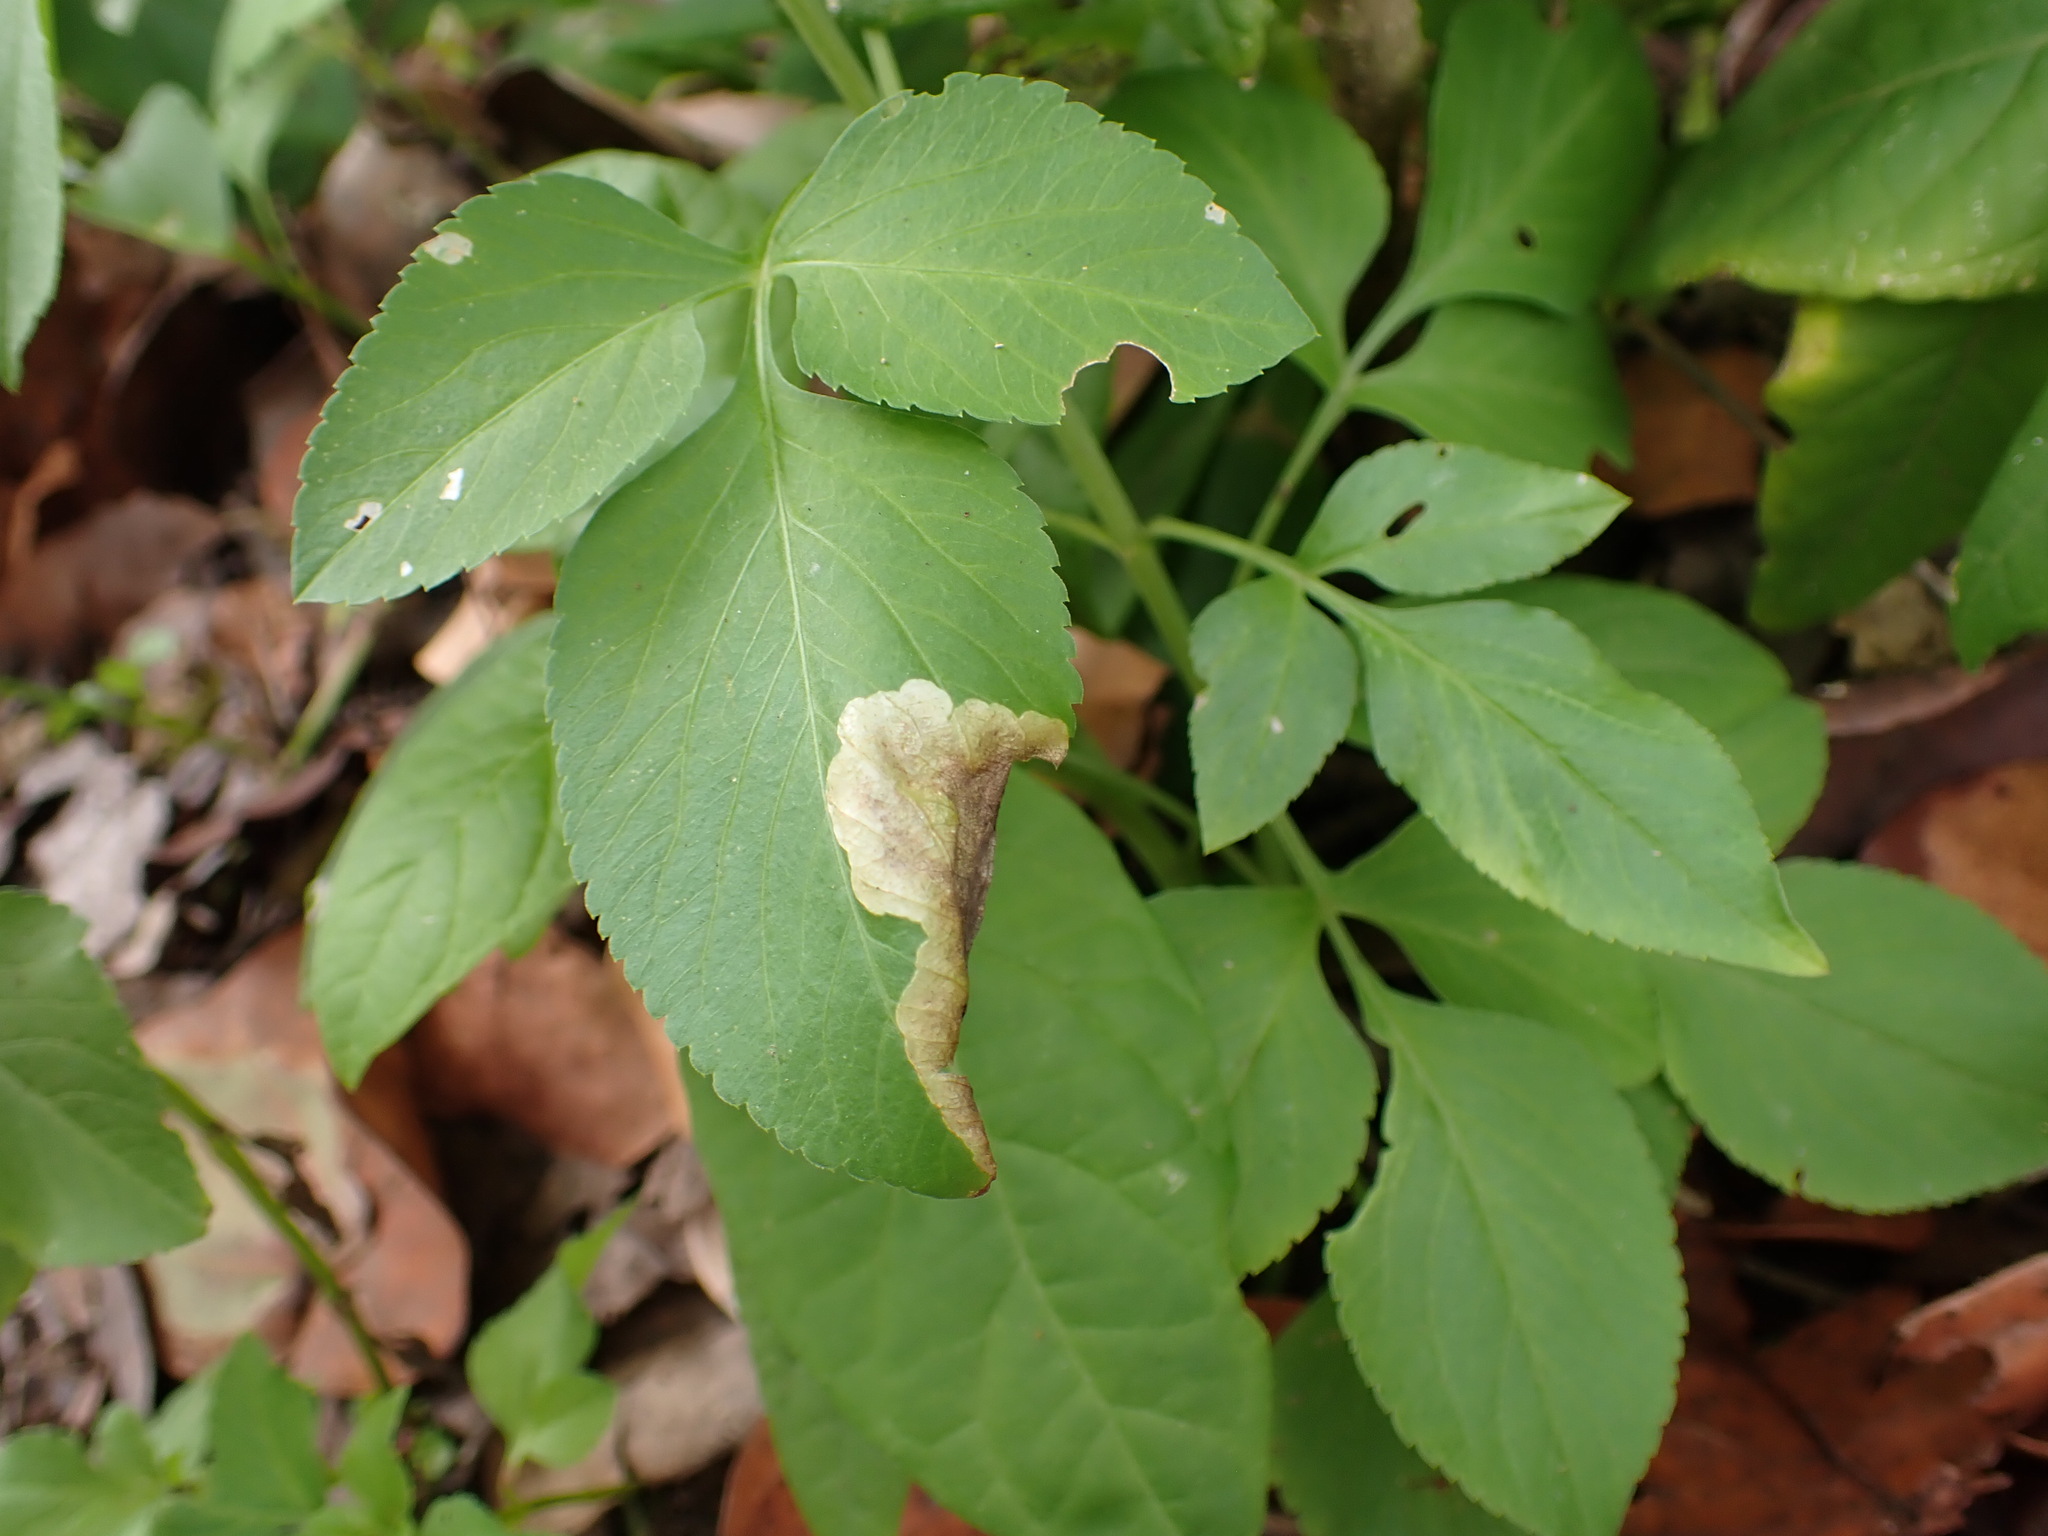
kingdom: Animalia
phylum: Arthropoda
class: Insecta
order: Diptera
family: Agromyzidae
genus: Nemorimyza
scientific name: Nemorimyza maculosa
